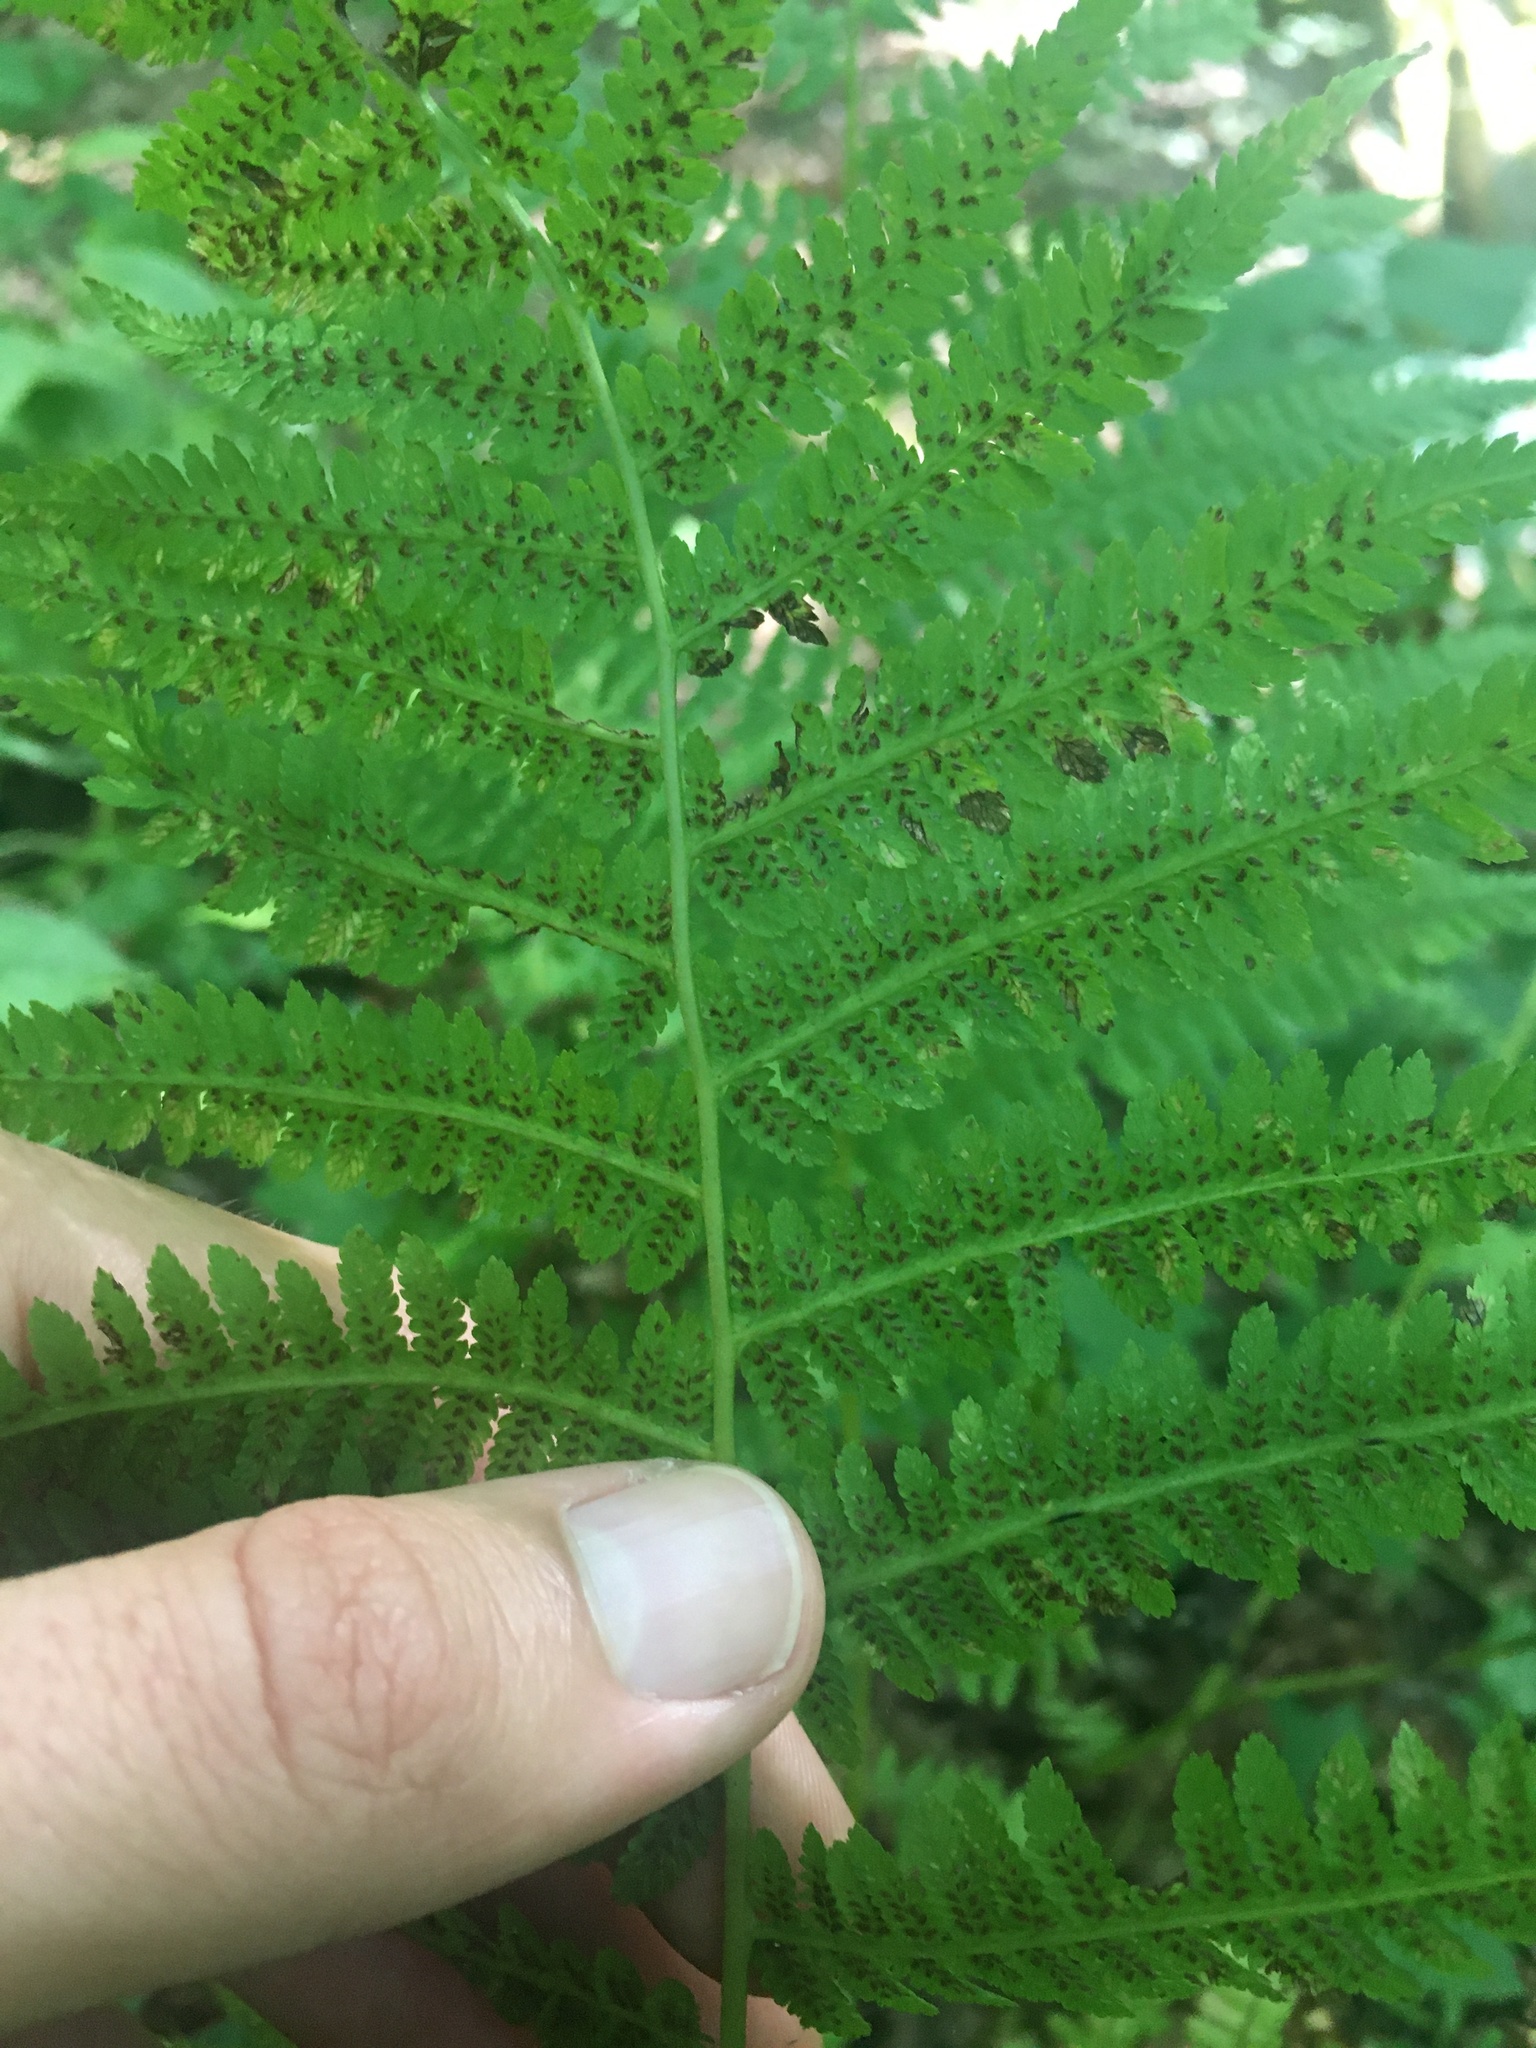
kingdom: Plantae
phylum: Tracheophyta
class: Polypodiopsida
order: Polypodiales
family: Athyriaceae
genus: Athyrium
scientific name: Athyrium angustum
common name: Northern lady fern
